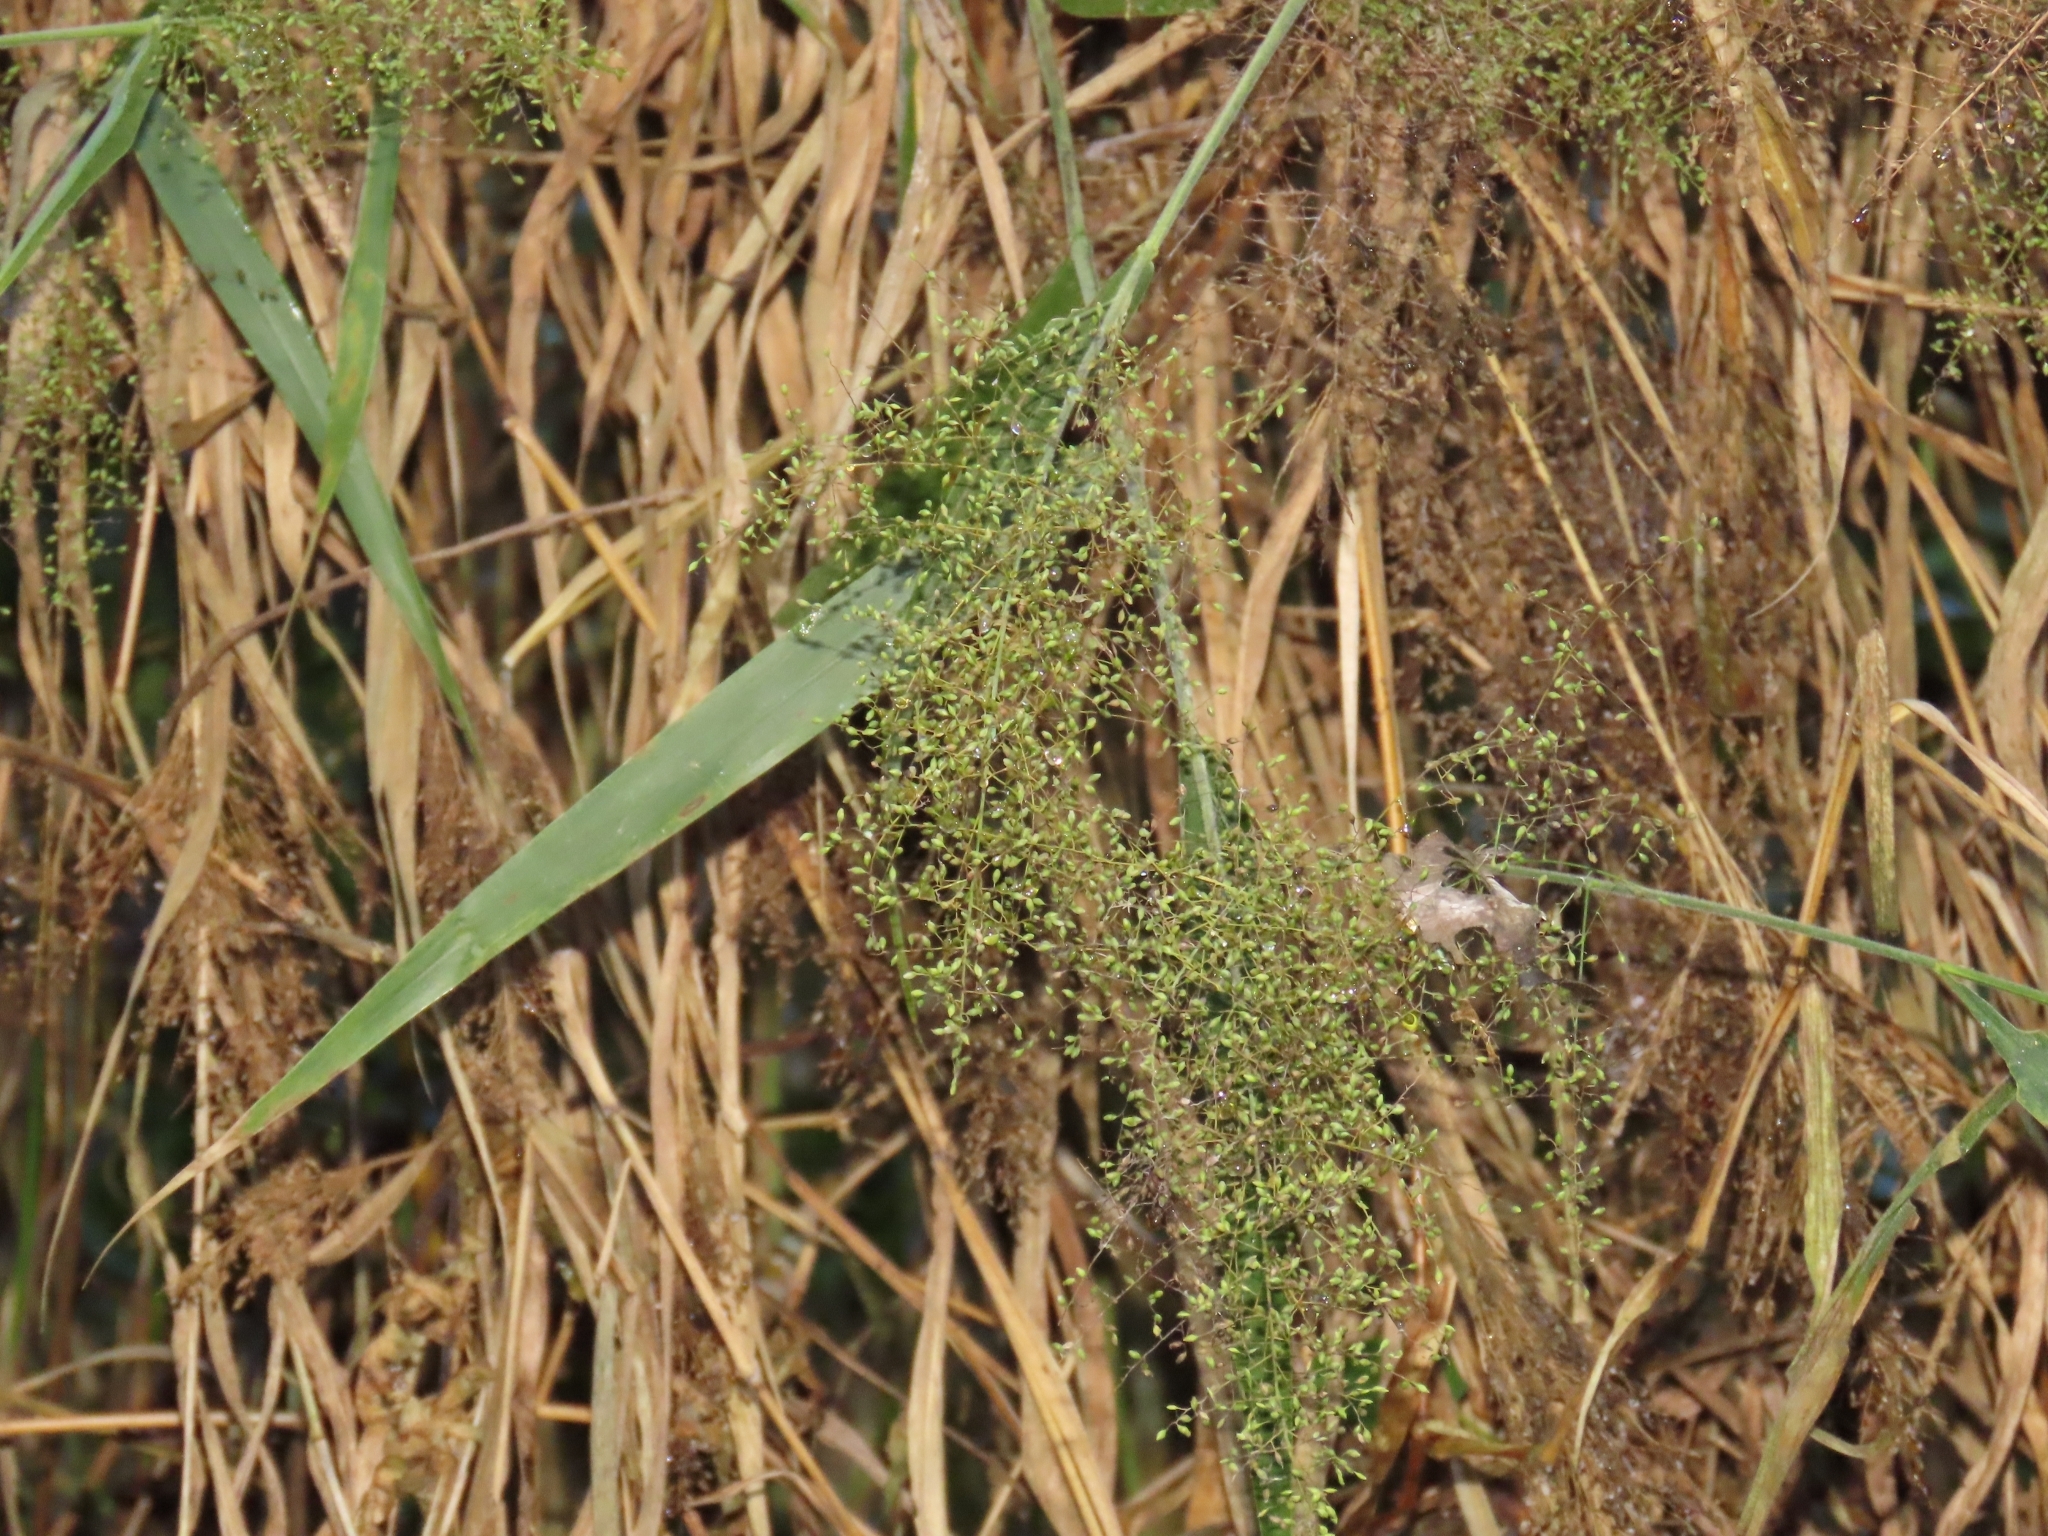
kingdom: Plantae
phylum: Tracheophyta
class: Liliopsida
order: Poales
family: Poaceae
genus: Panicum
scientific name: Panicum sarmentosum
